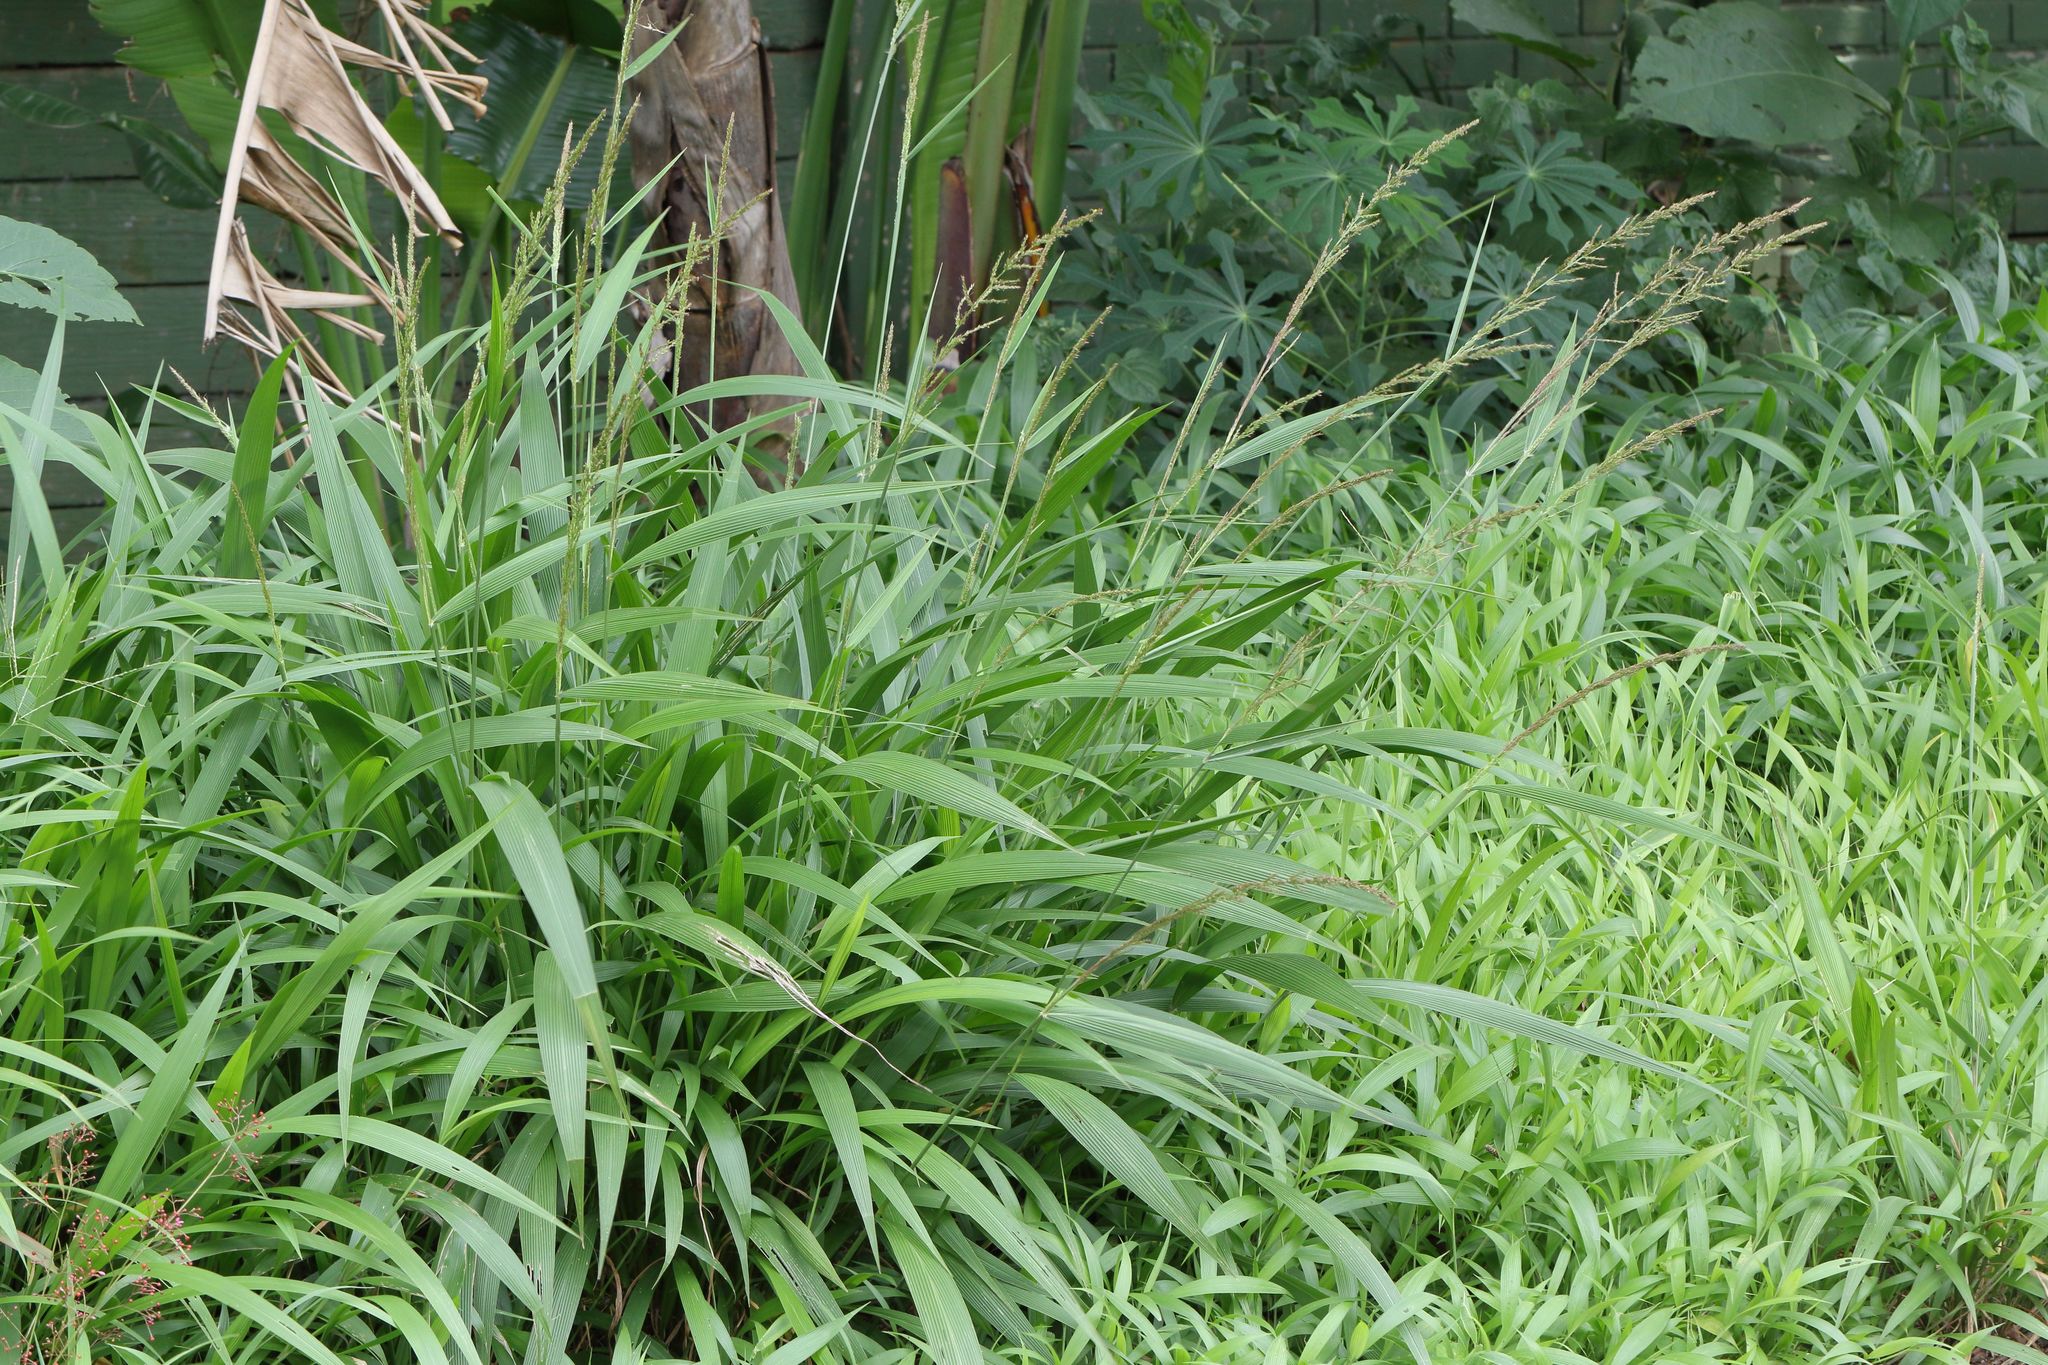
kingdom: Plantae
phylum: Tracheophyta
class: Liliopsida
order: Poales
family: Poaceae
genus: Setaria
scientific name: Setaria megaphylla
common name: Bigleaf bristlegrass
